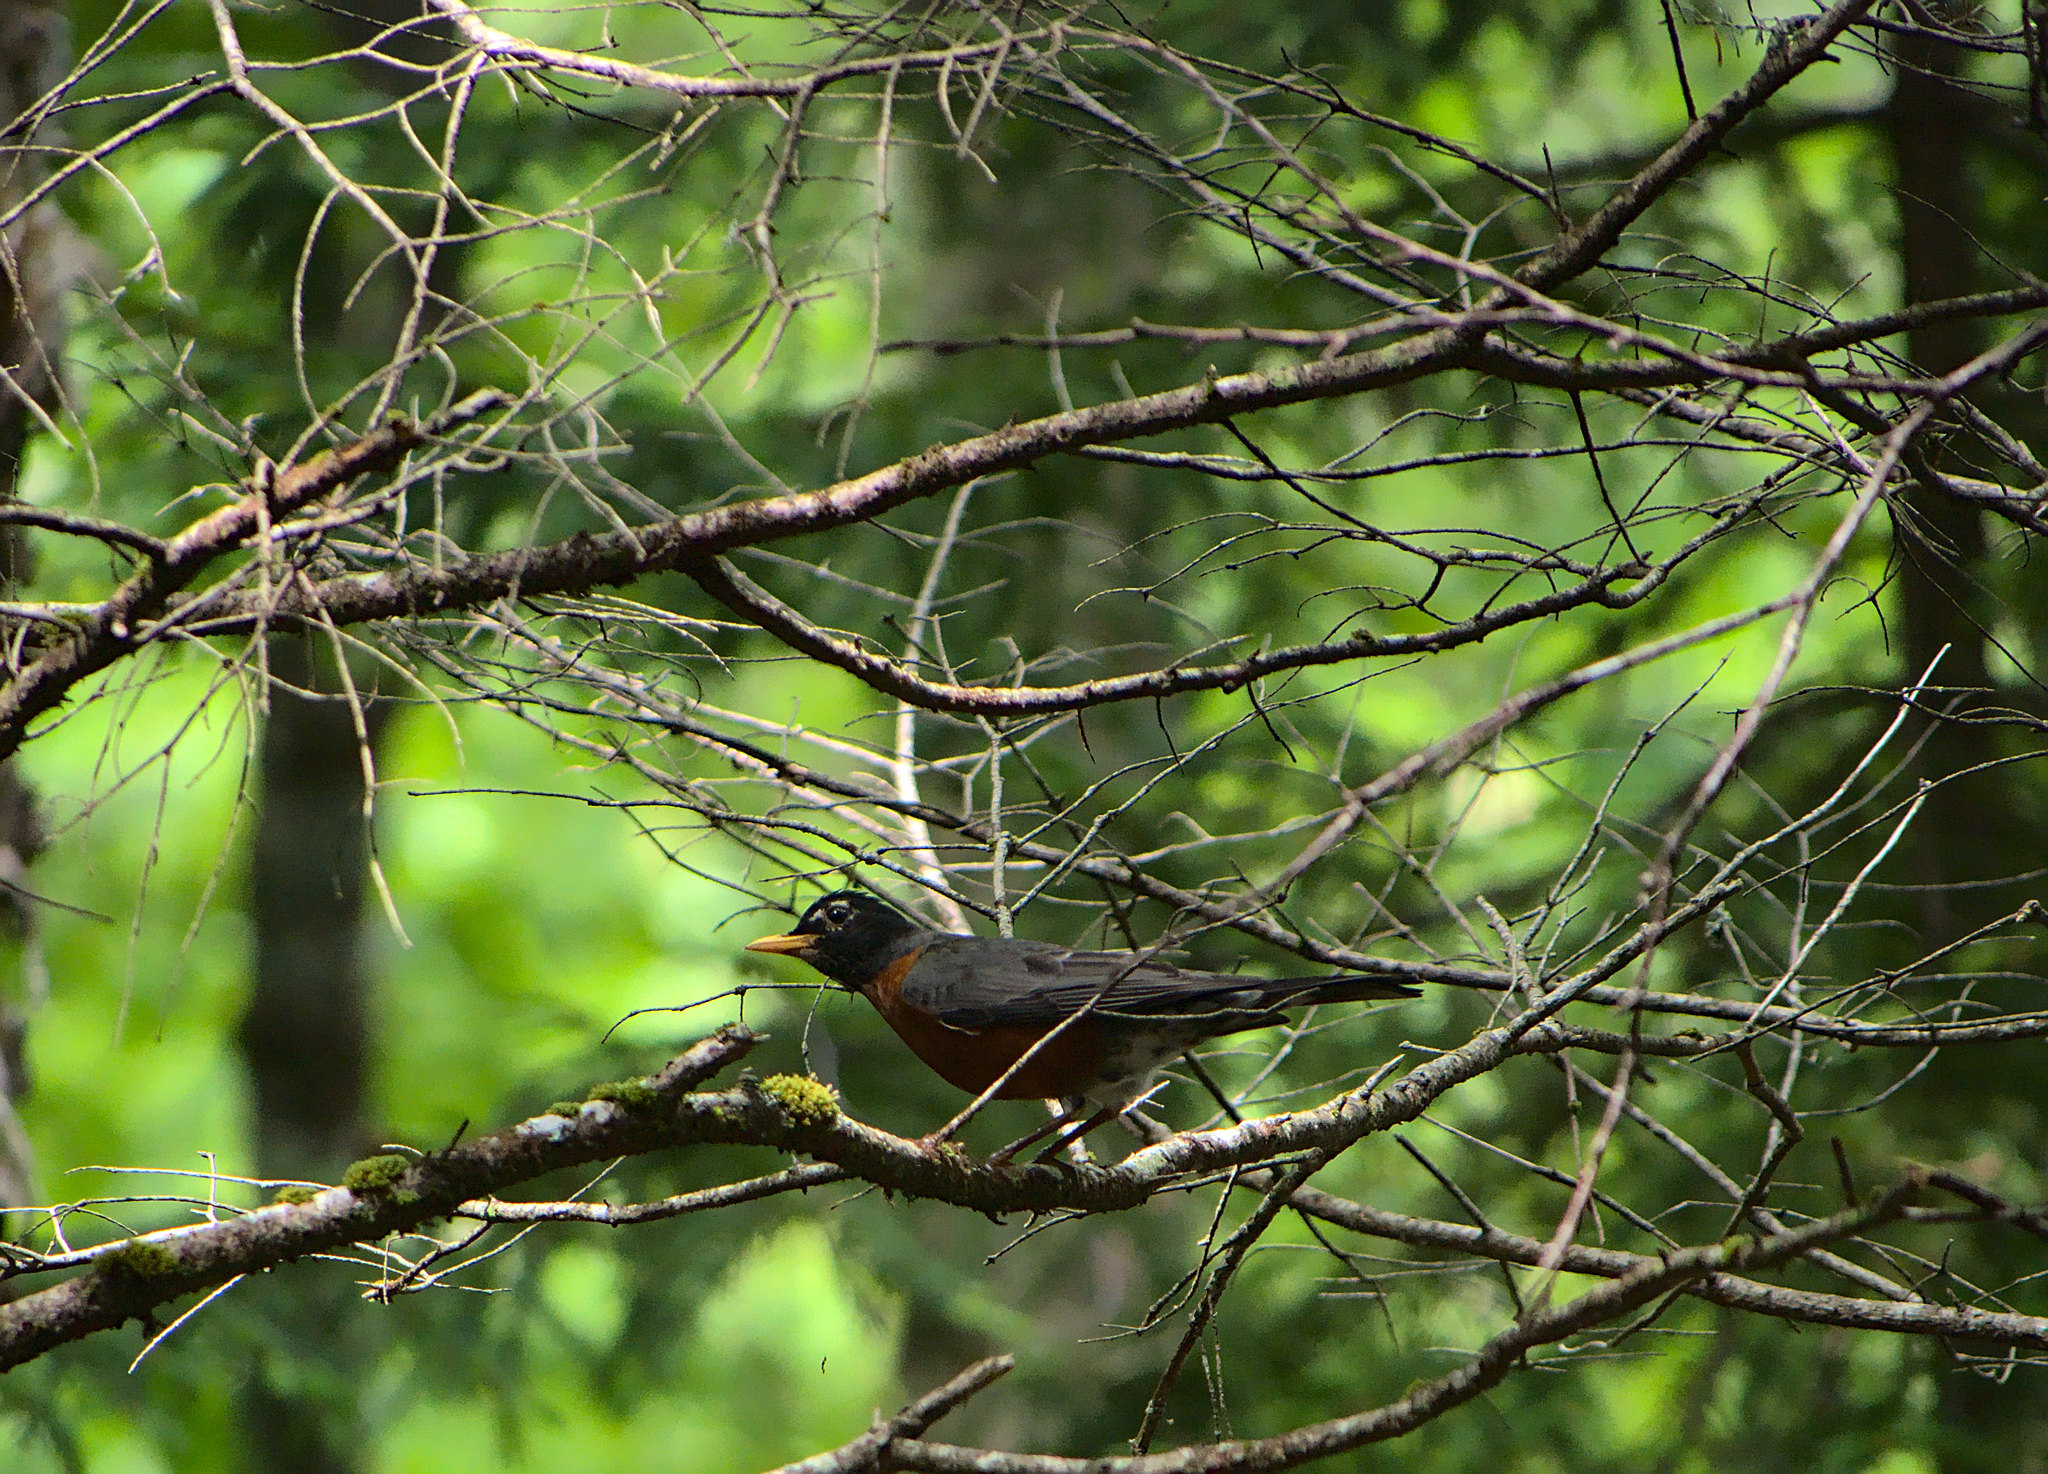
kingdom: Animalia
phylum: Chordata
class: Aves
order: Passeriformes
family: Turdidae
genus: Turdus
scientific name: Turdus migratorius
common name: American robin
